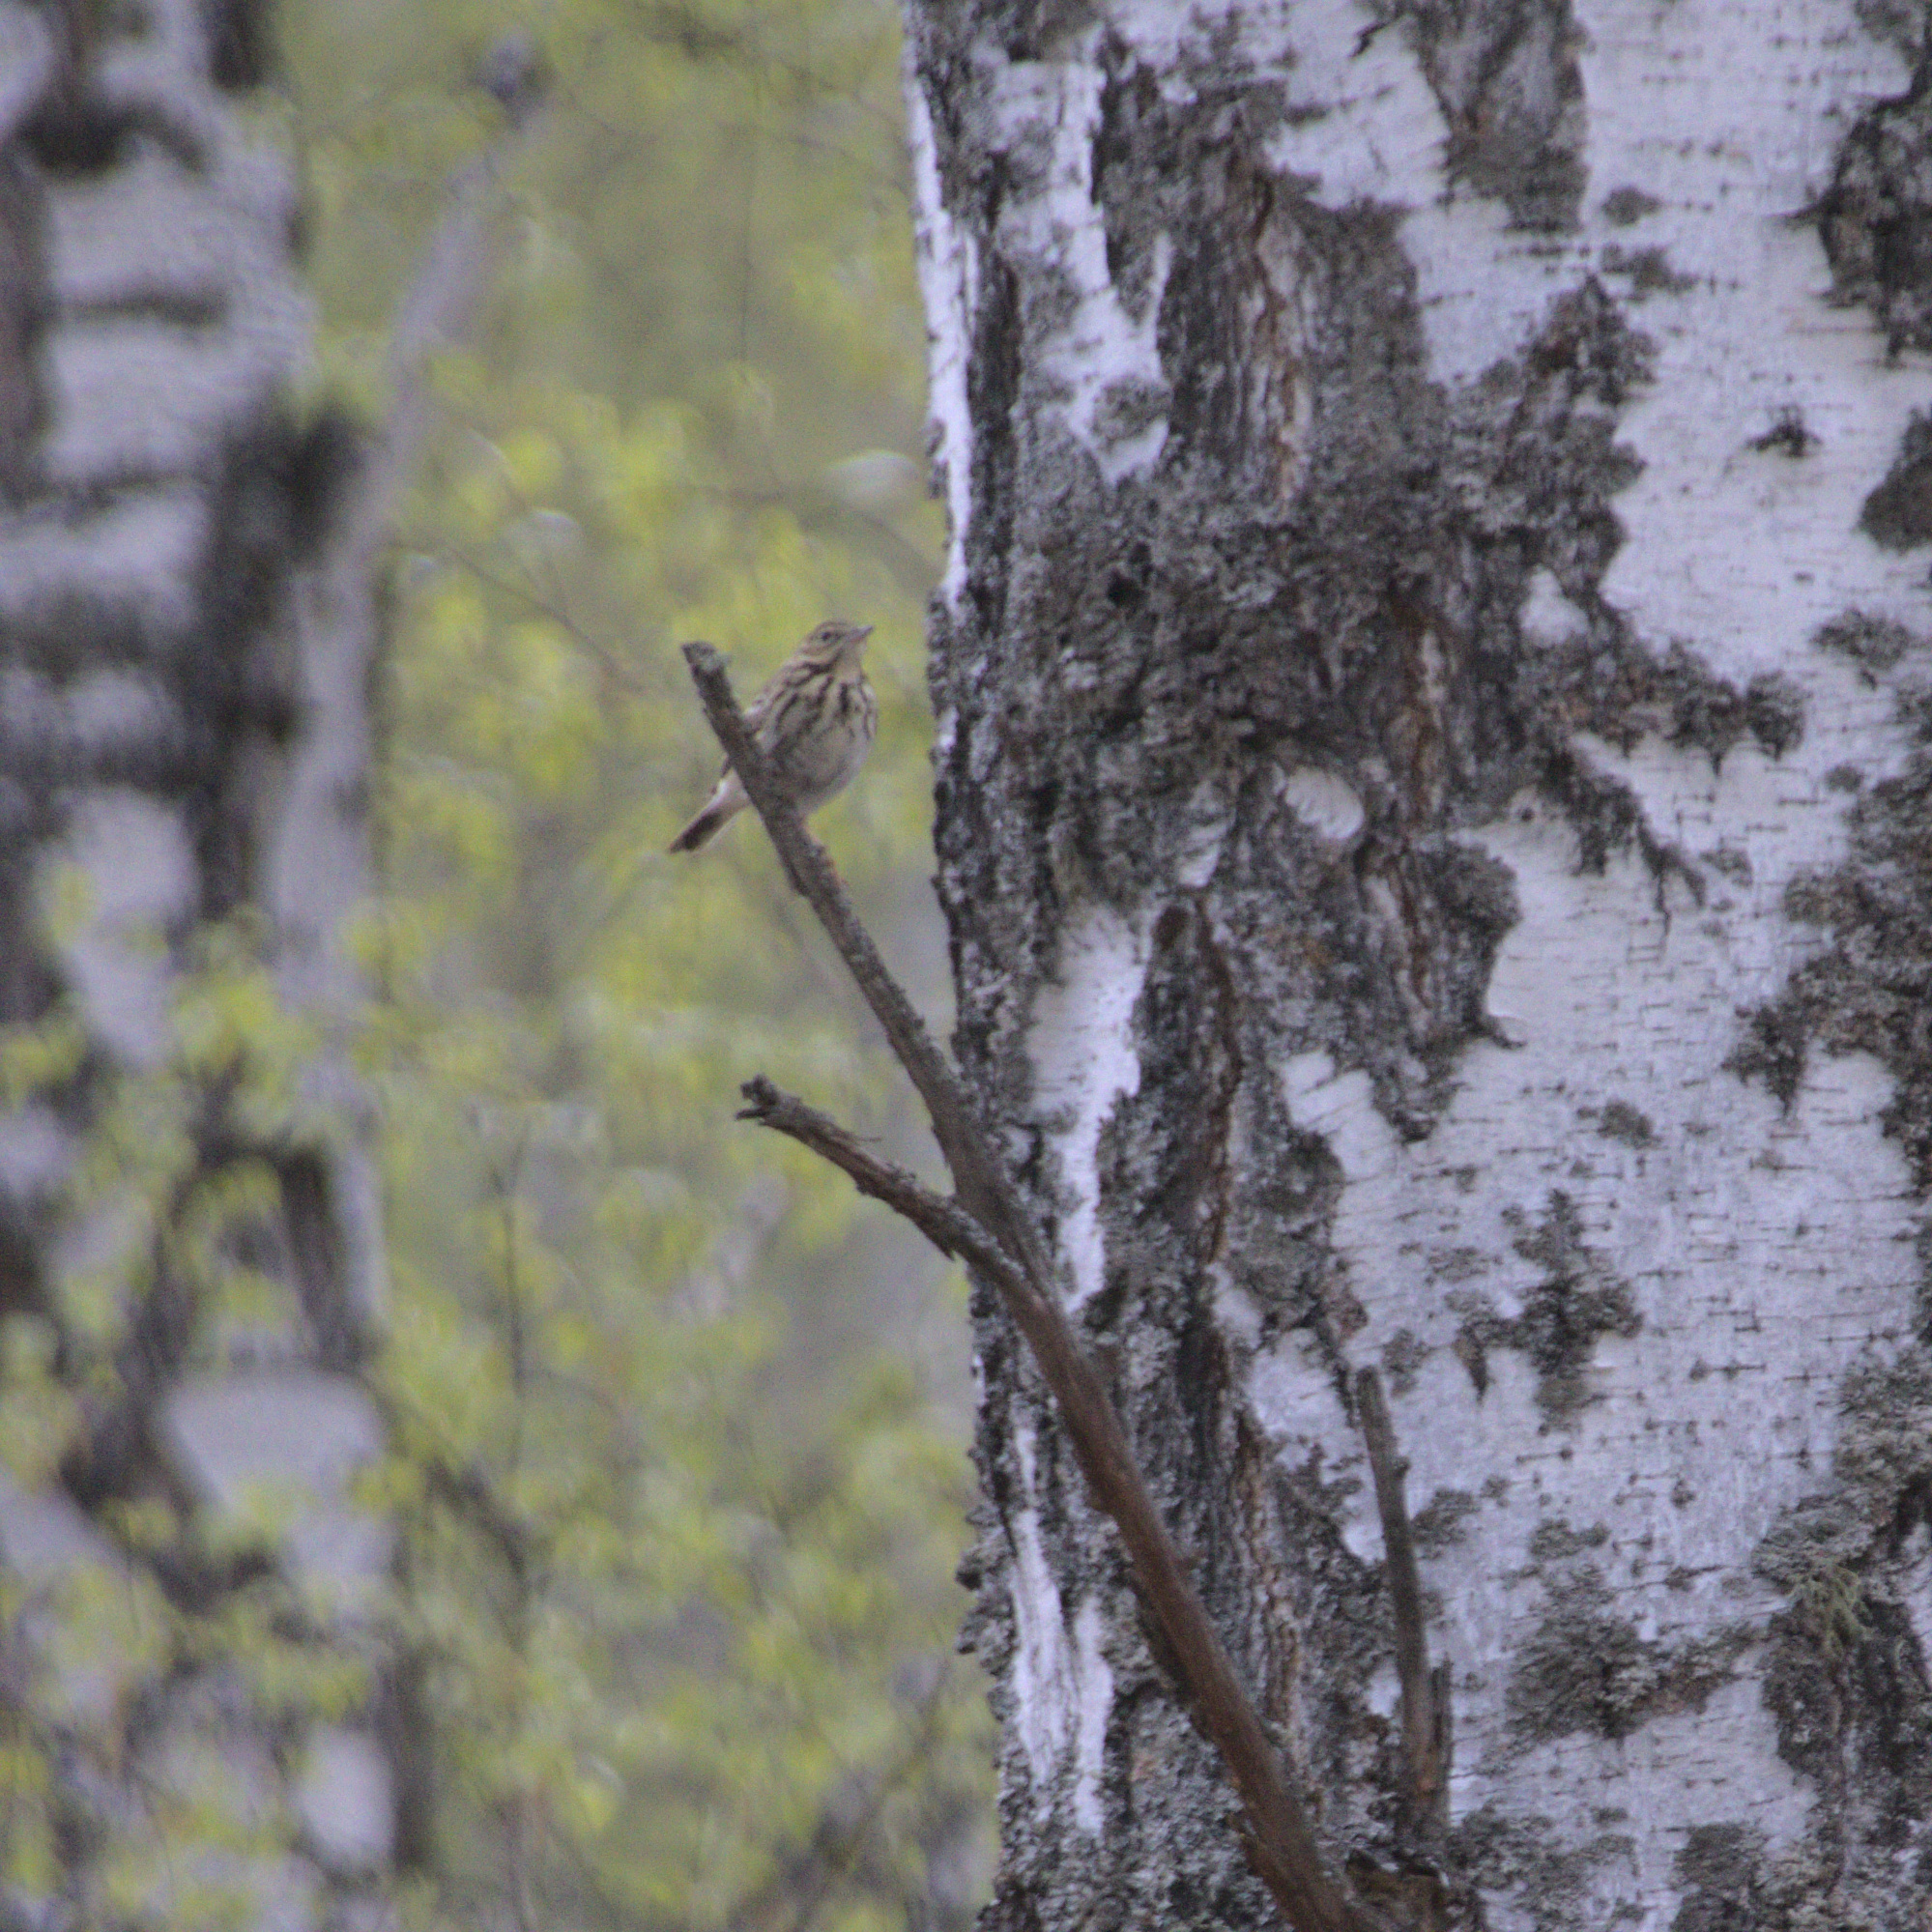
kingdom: Animalia
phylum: Chordata
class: Aves
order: Passeriformes
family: Motacillidae
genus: Anthus
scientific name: Anthus trivialis
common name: Tree pipit
